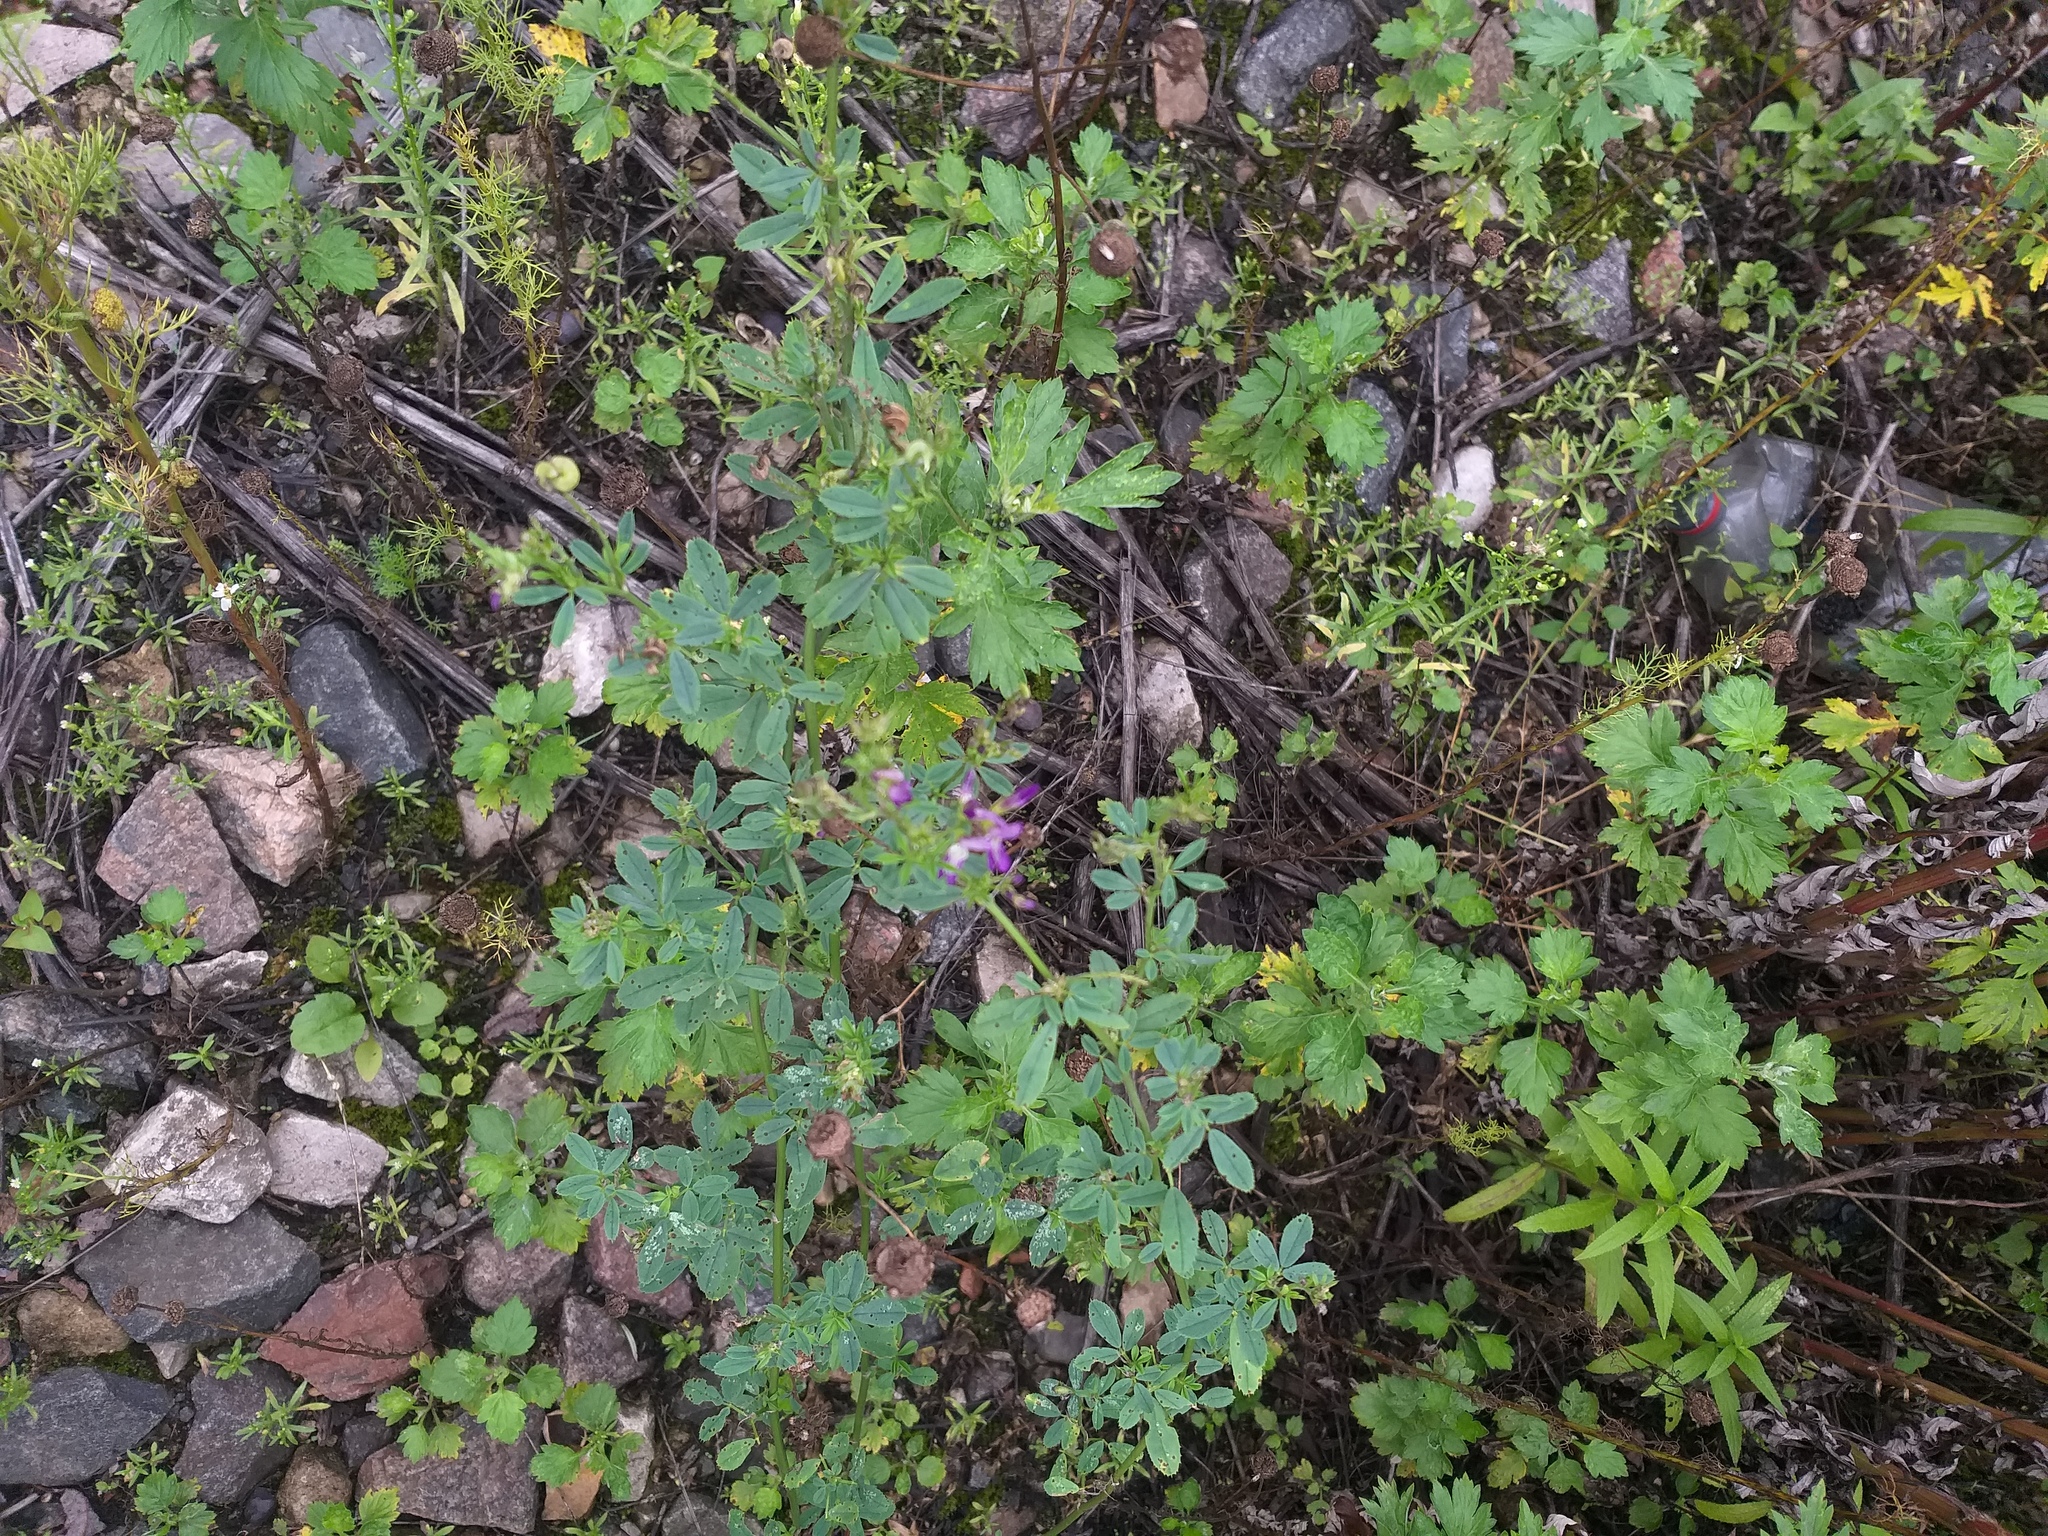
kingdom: Plantae
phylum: Tracheophyta
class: Magnoliopsida
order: Fabales
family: Fabaceae
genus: Medicago
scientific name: Medicago sativa
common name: Alfalfa
